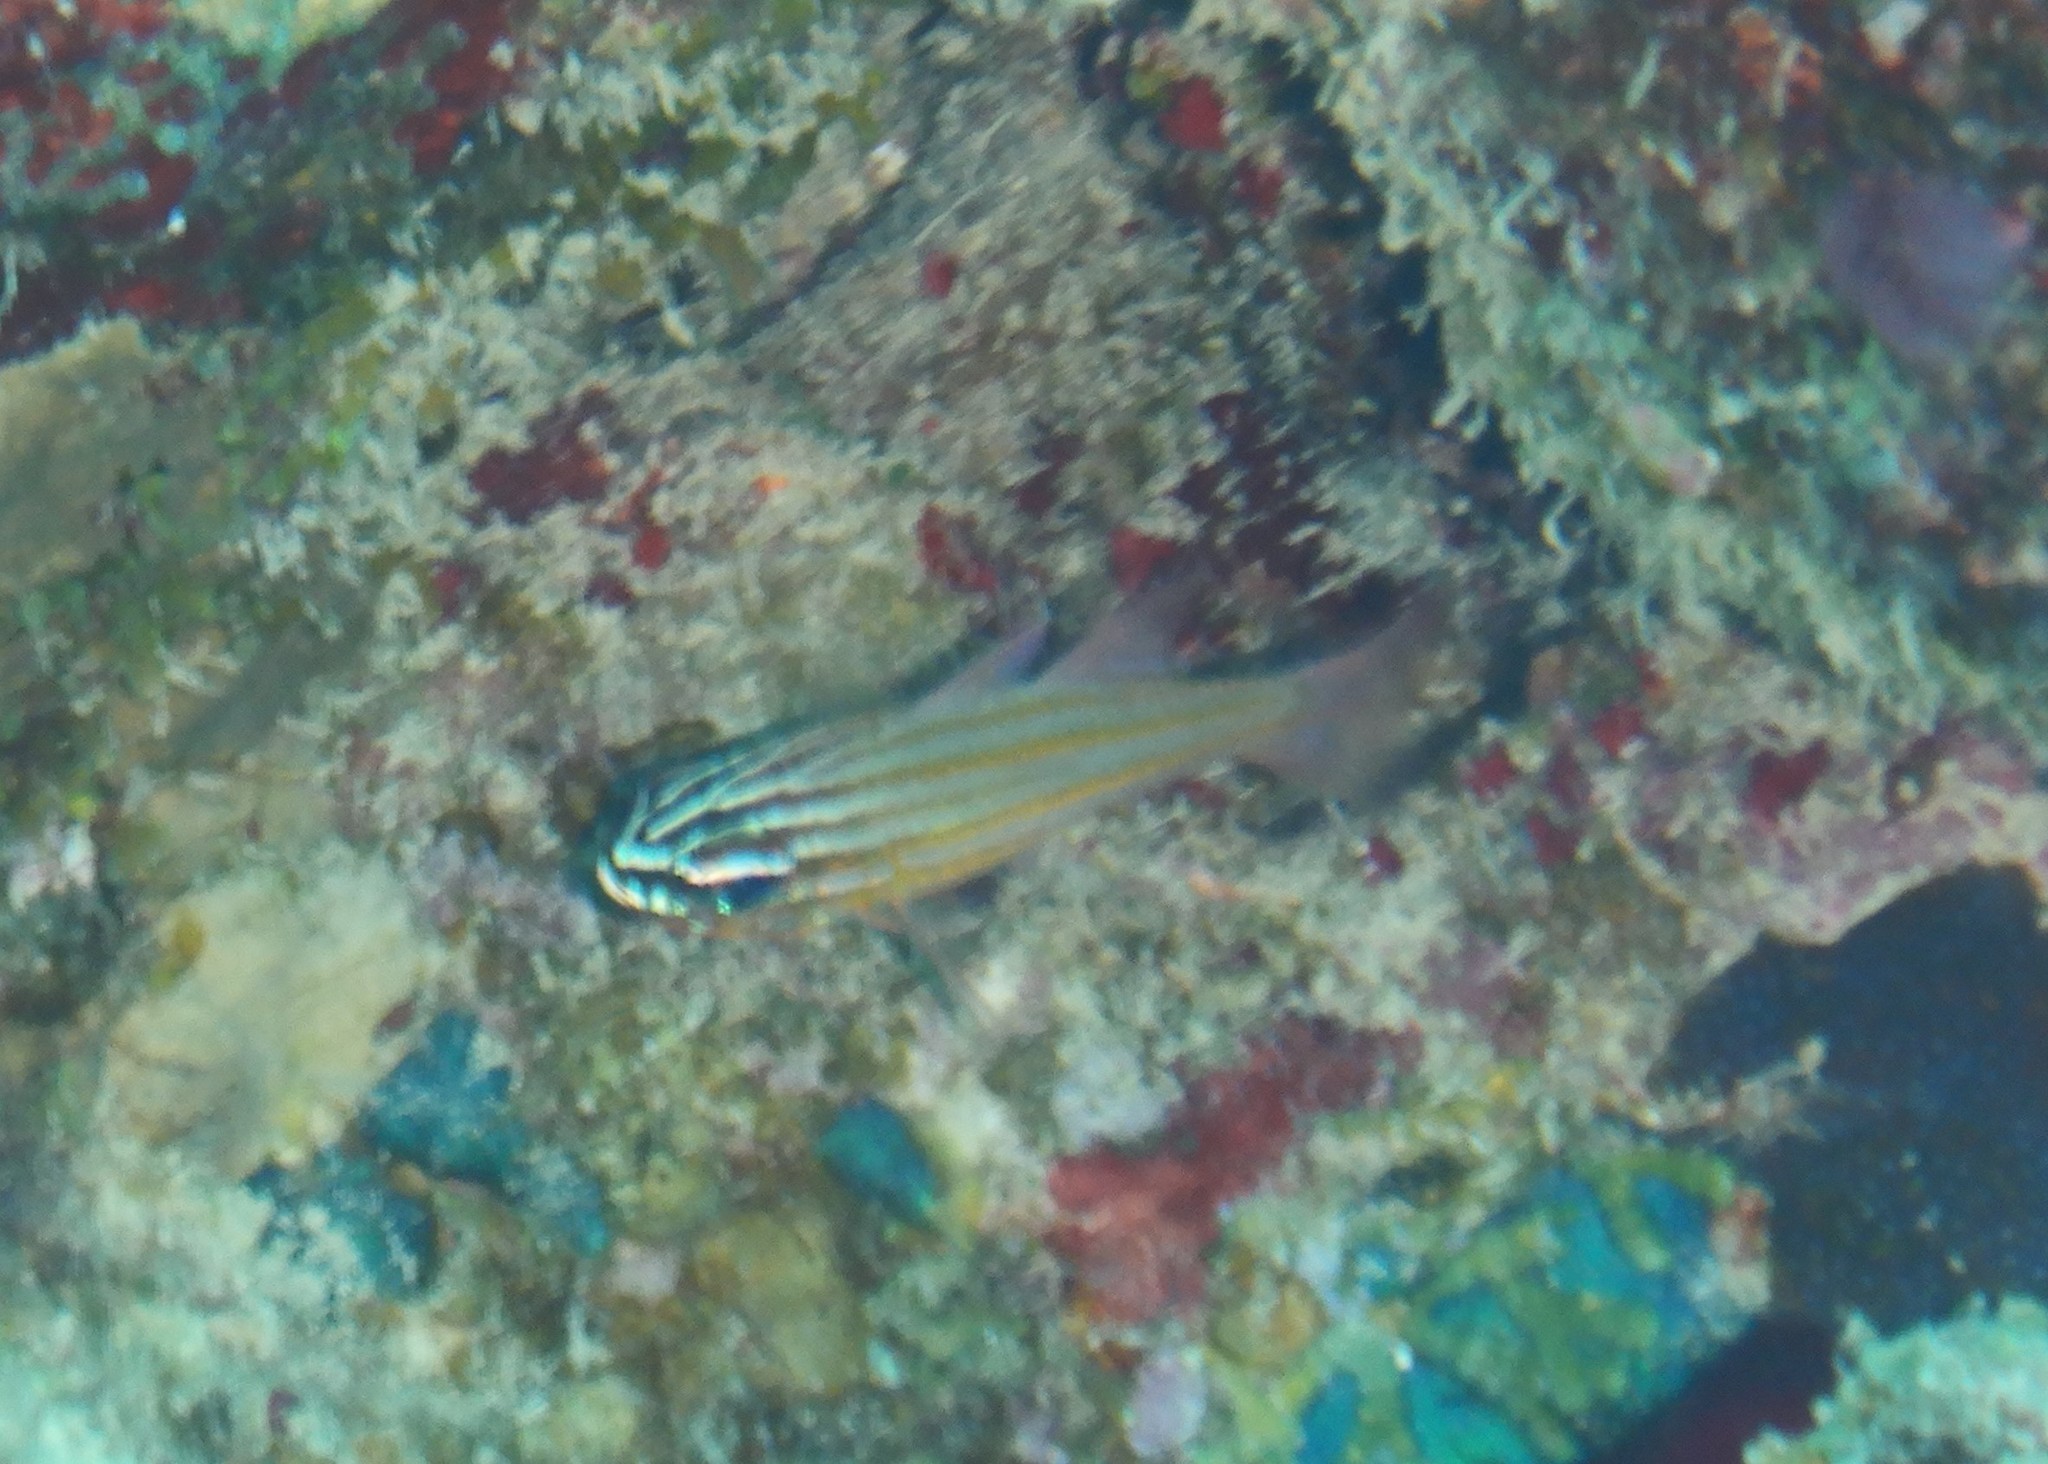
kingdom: Animalia
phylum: Chordata
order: Perciformes
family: Apogonidae
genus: Ostorhinchus
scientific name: Ostorhinchus cyanosoma
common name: Yellow-striped cardinalfish
